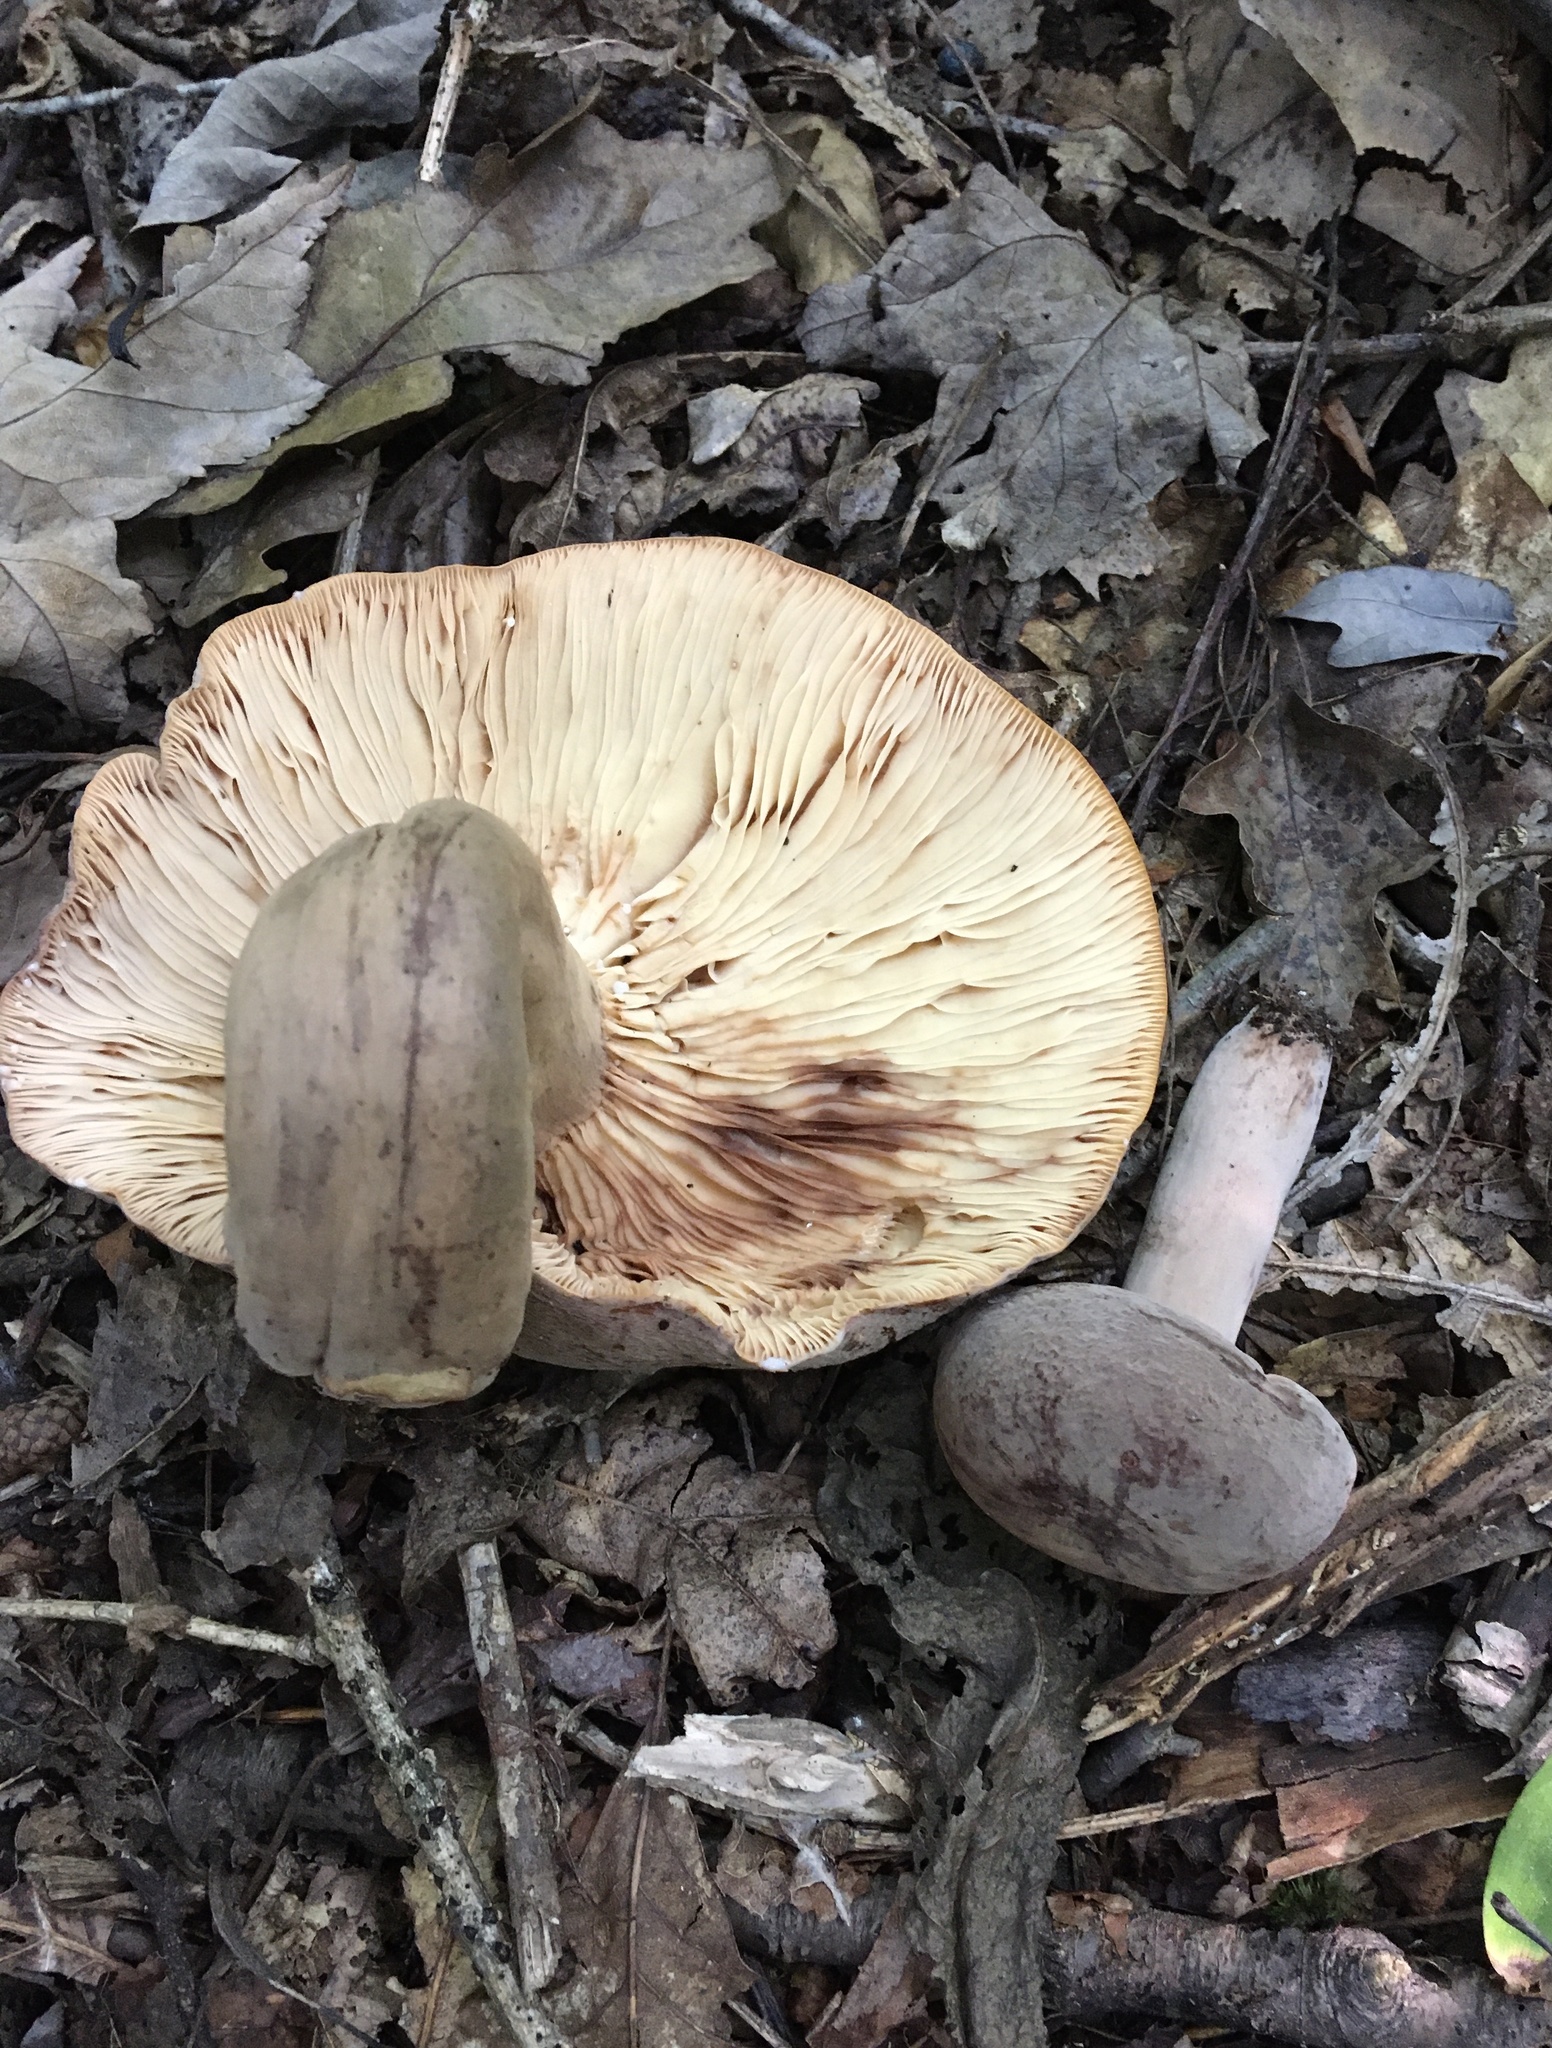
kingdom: Fungi
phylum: Basidiomycota
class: Agaricomycetes
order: Russulales
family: Russulaceae
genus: Lactarius
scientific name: Lactarius corrugis
